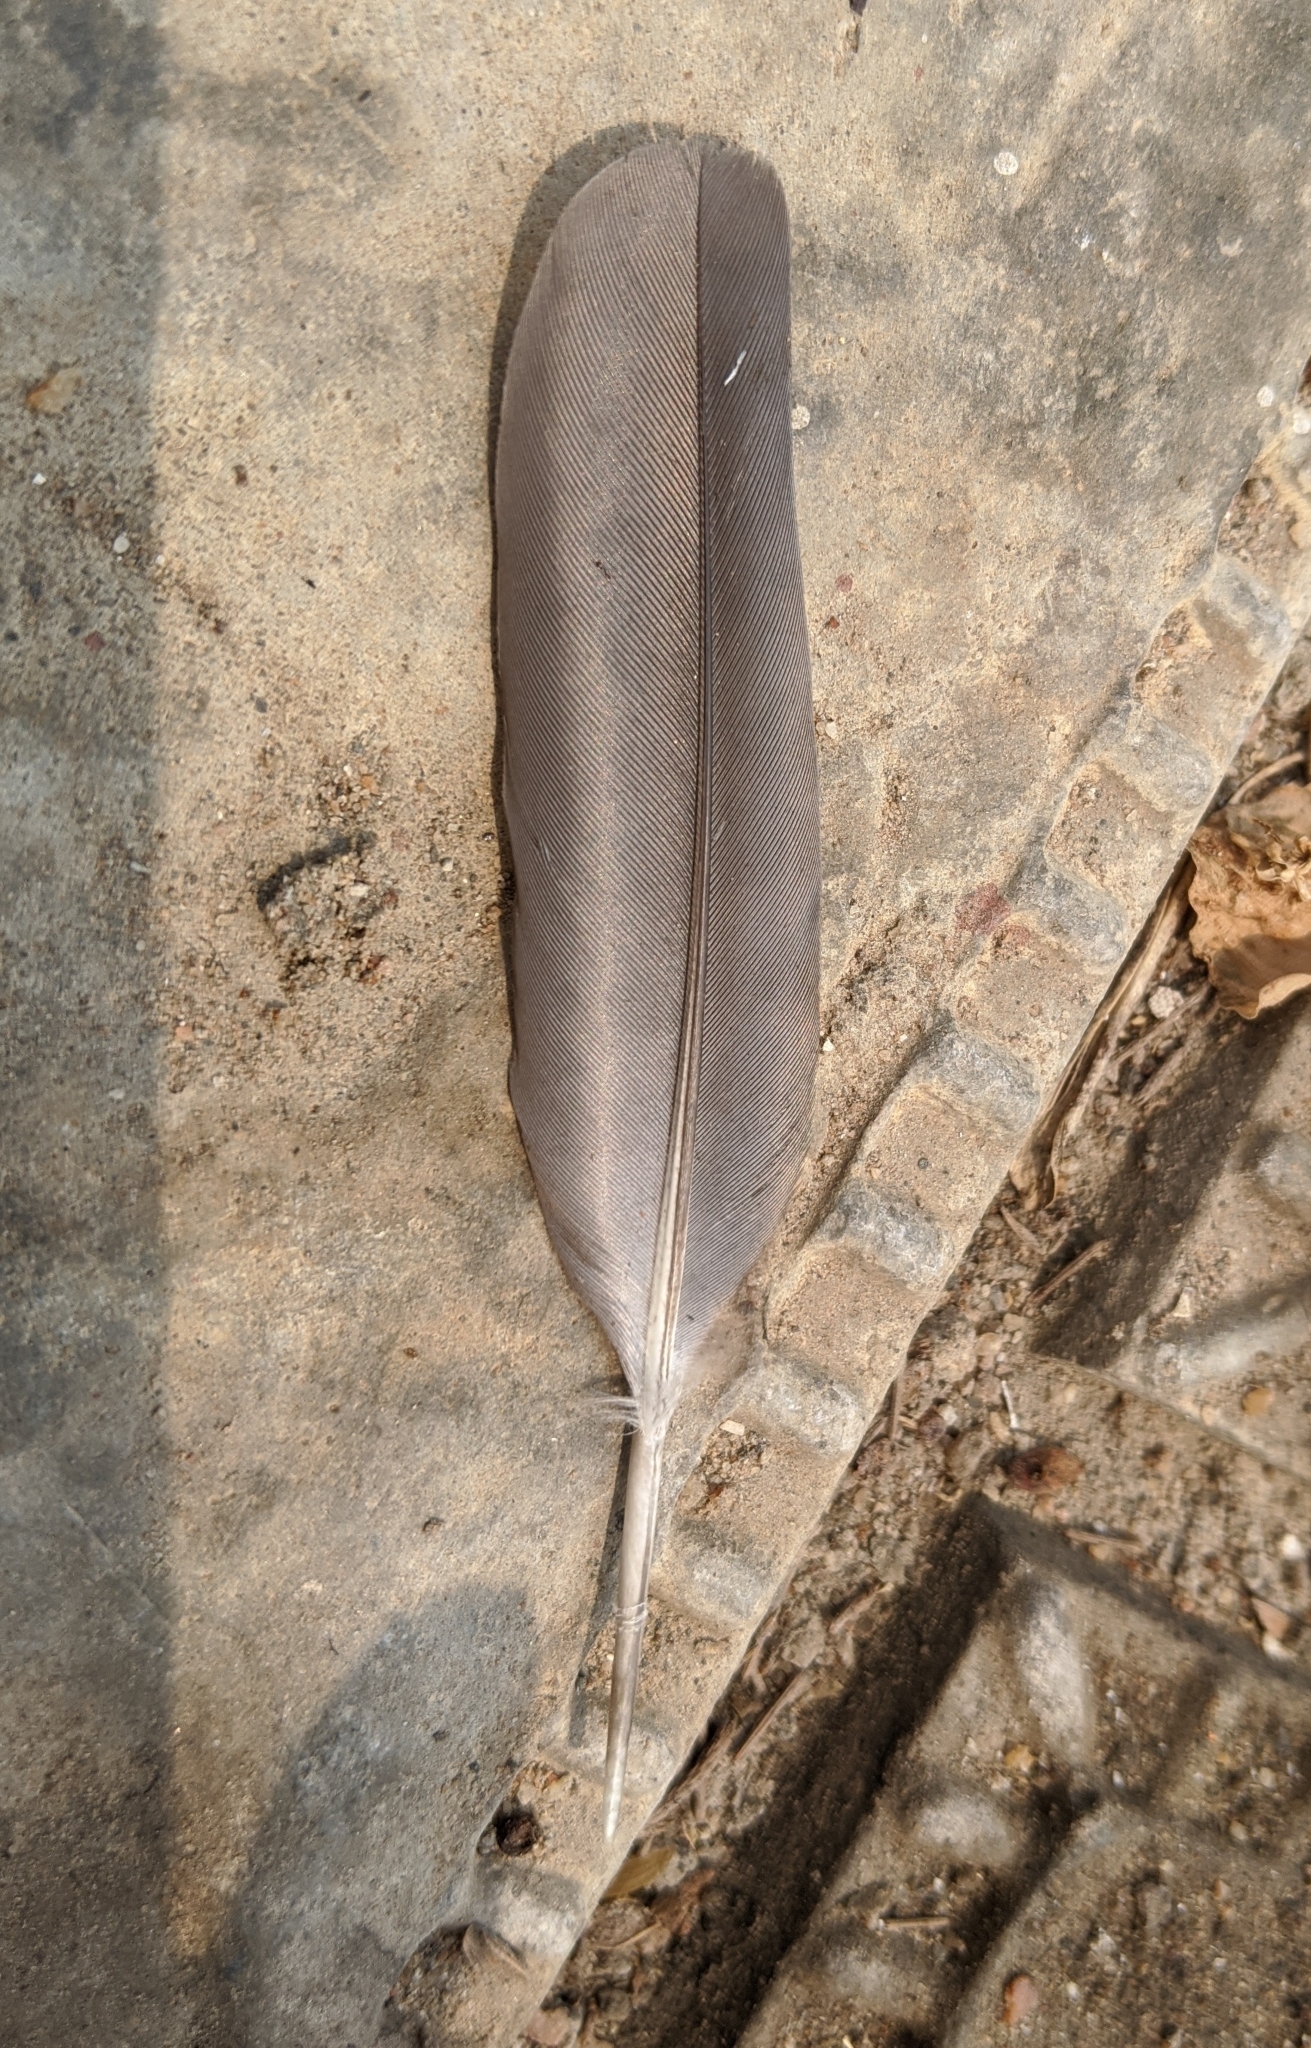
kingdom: Animalia
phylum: Chordata
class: Aves
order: Columbiformes
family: Columbidae
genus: Spilopelia
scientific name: Spilopelia senegalensis
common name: Laughing dove
